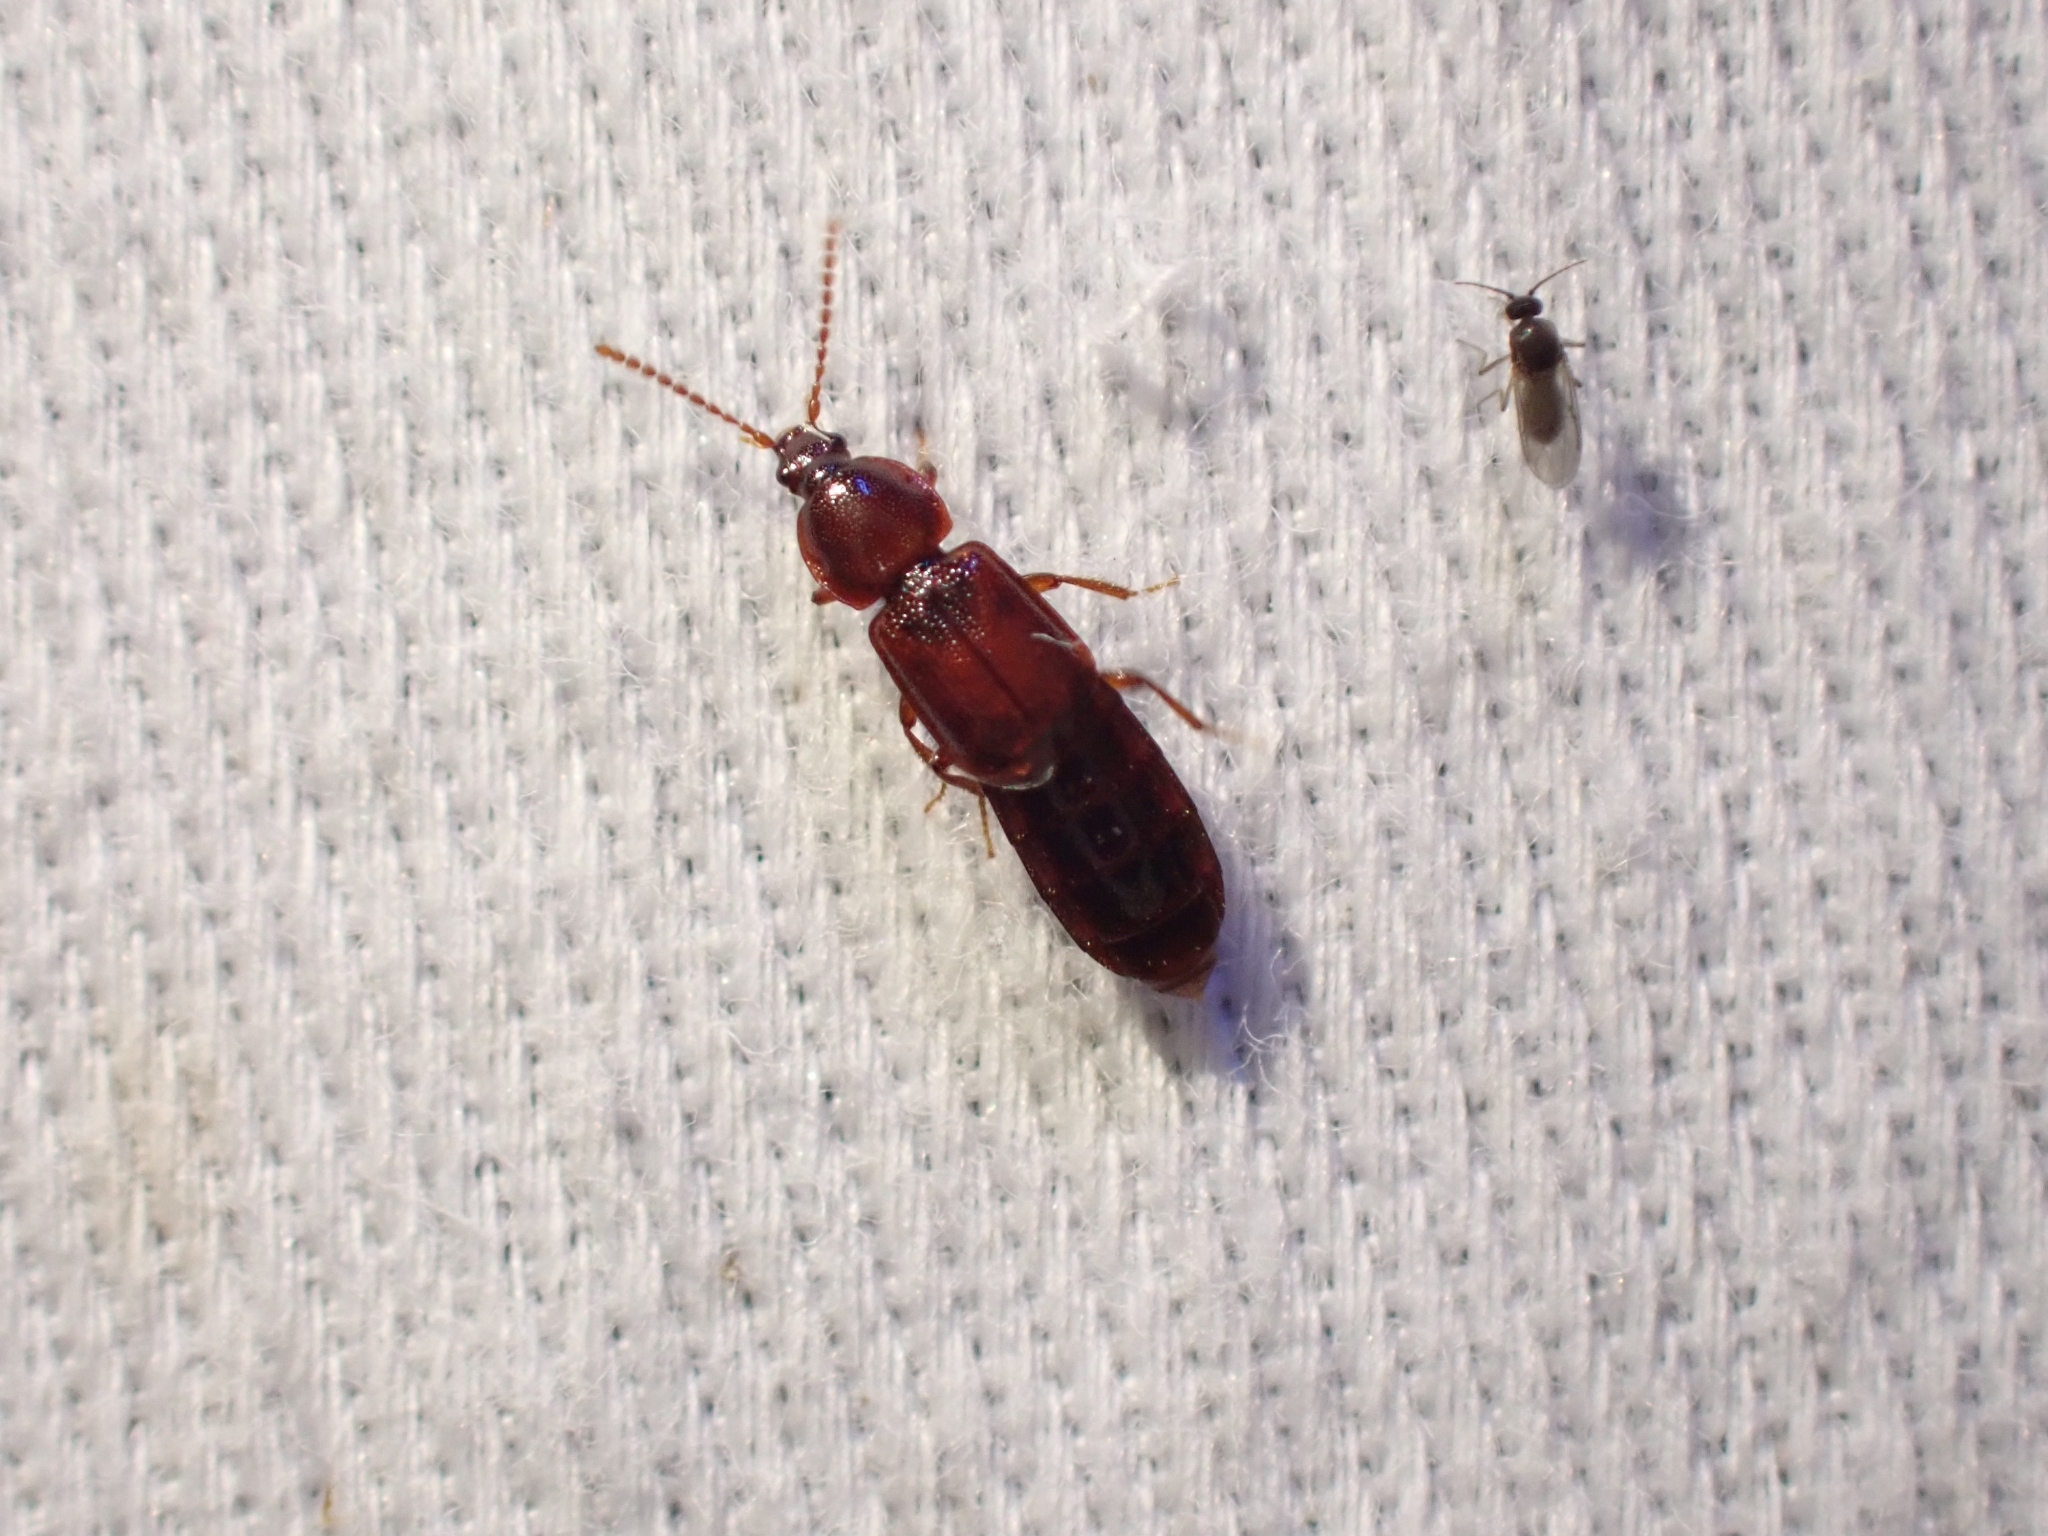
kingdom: Animalia
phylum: Arthropoda
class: Insecta
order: Coleoptera
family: Staphylinidae
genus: Acidota
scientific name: Acidota crenata
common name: Staph beetle
